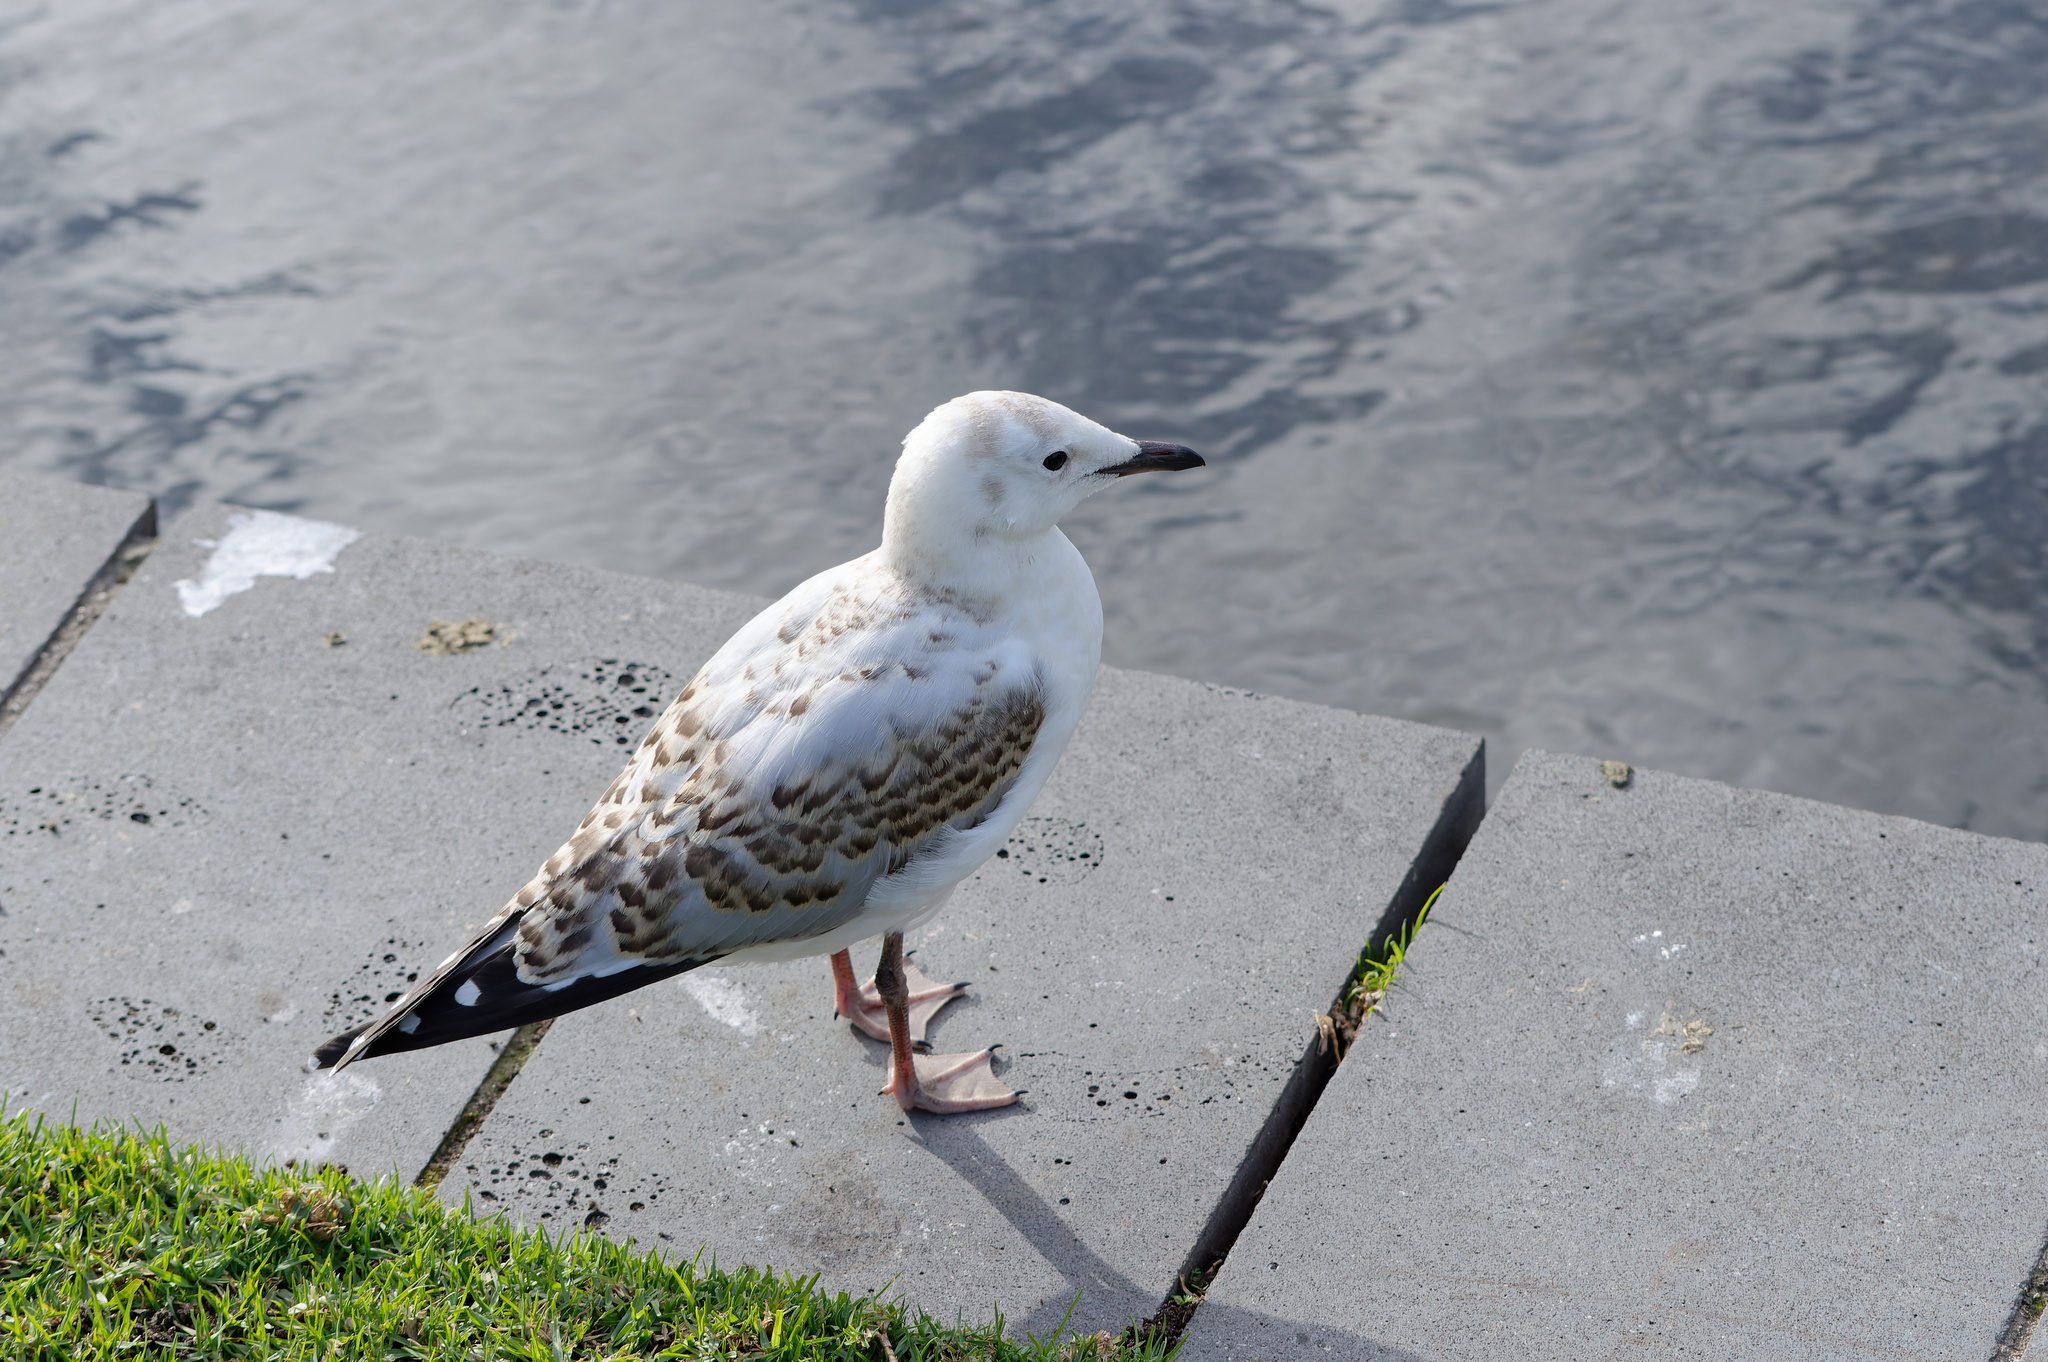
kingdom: Animalia
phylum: Chordata
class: Aves
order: Charadriiformes
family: Laridae
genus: Chroicocephalus
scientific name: Chroicocephalus novaehollandiae
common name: Silver gull
